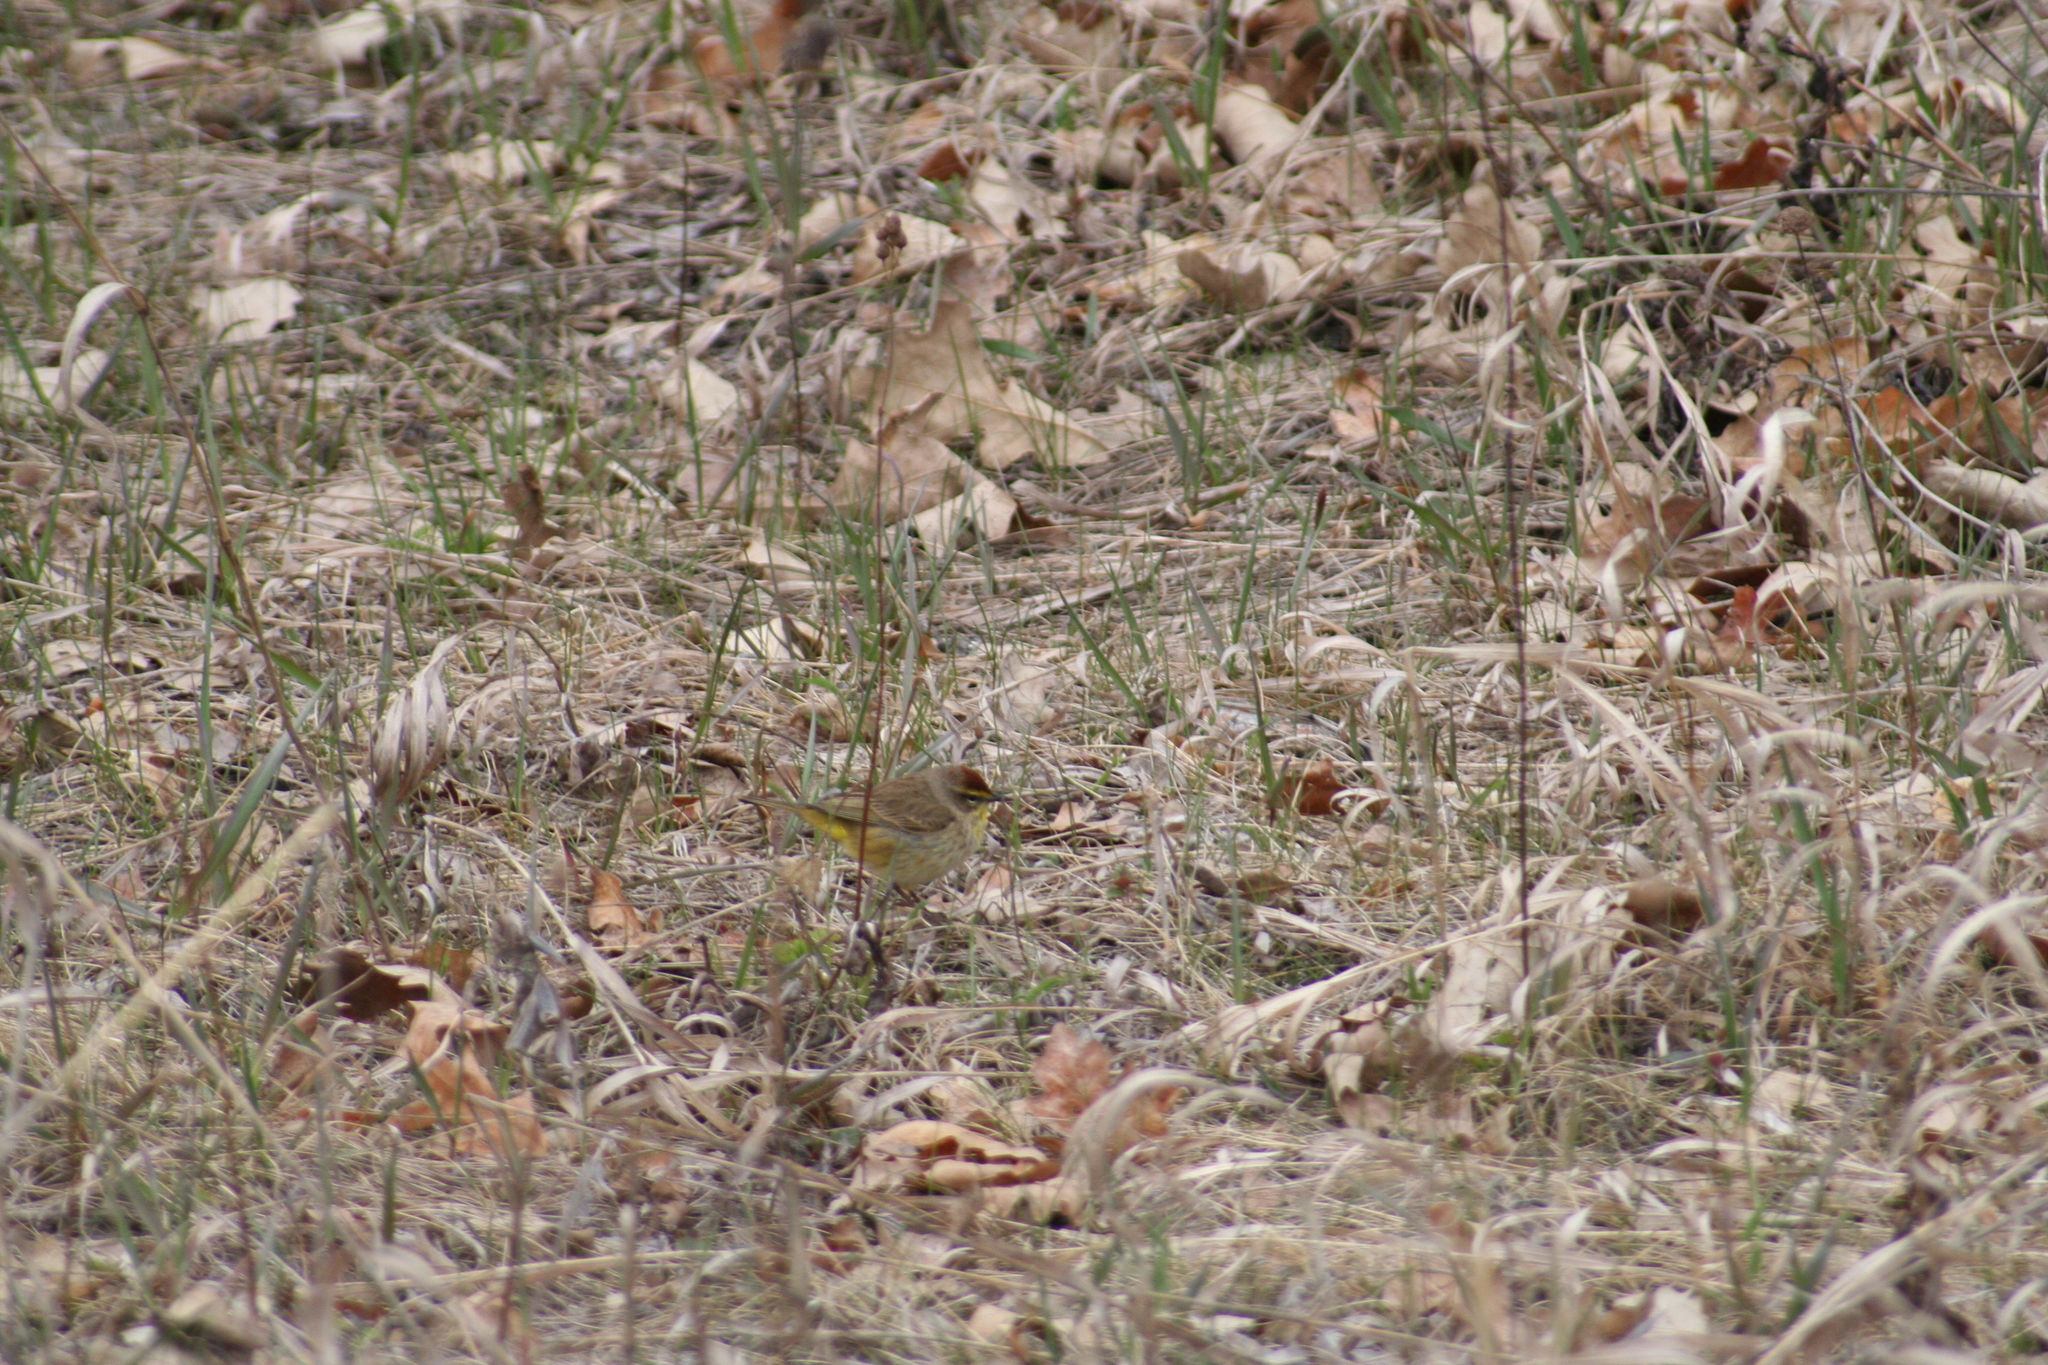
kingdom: Animalia
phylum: Chordata
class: Aves
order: Passeriformes
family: Parulidae
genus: Setophaga
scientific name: Setophaga palmarum
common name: Palm warbler
